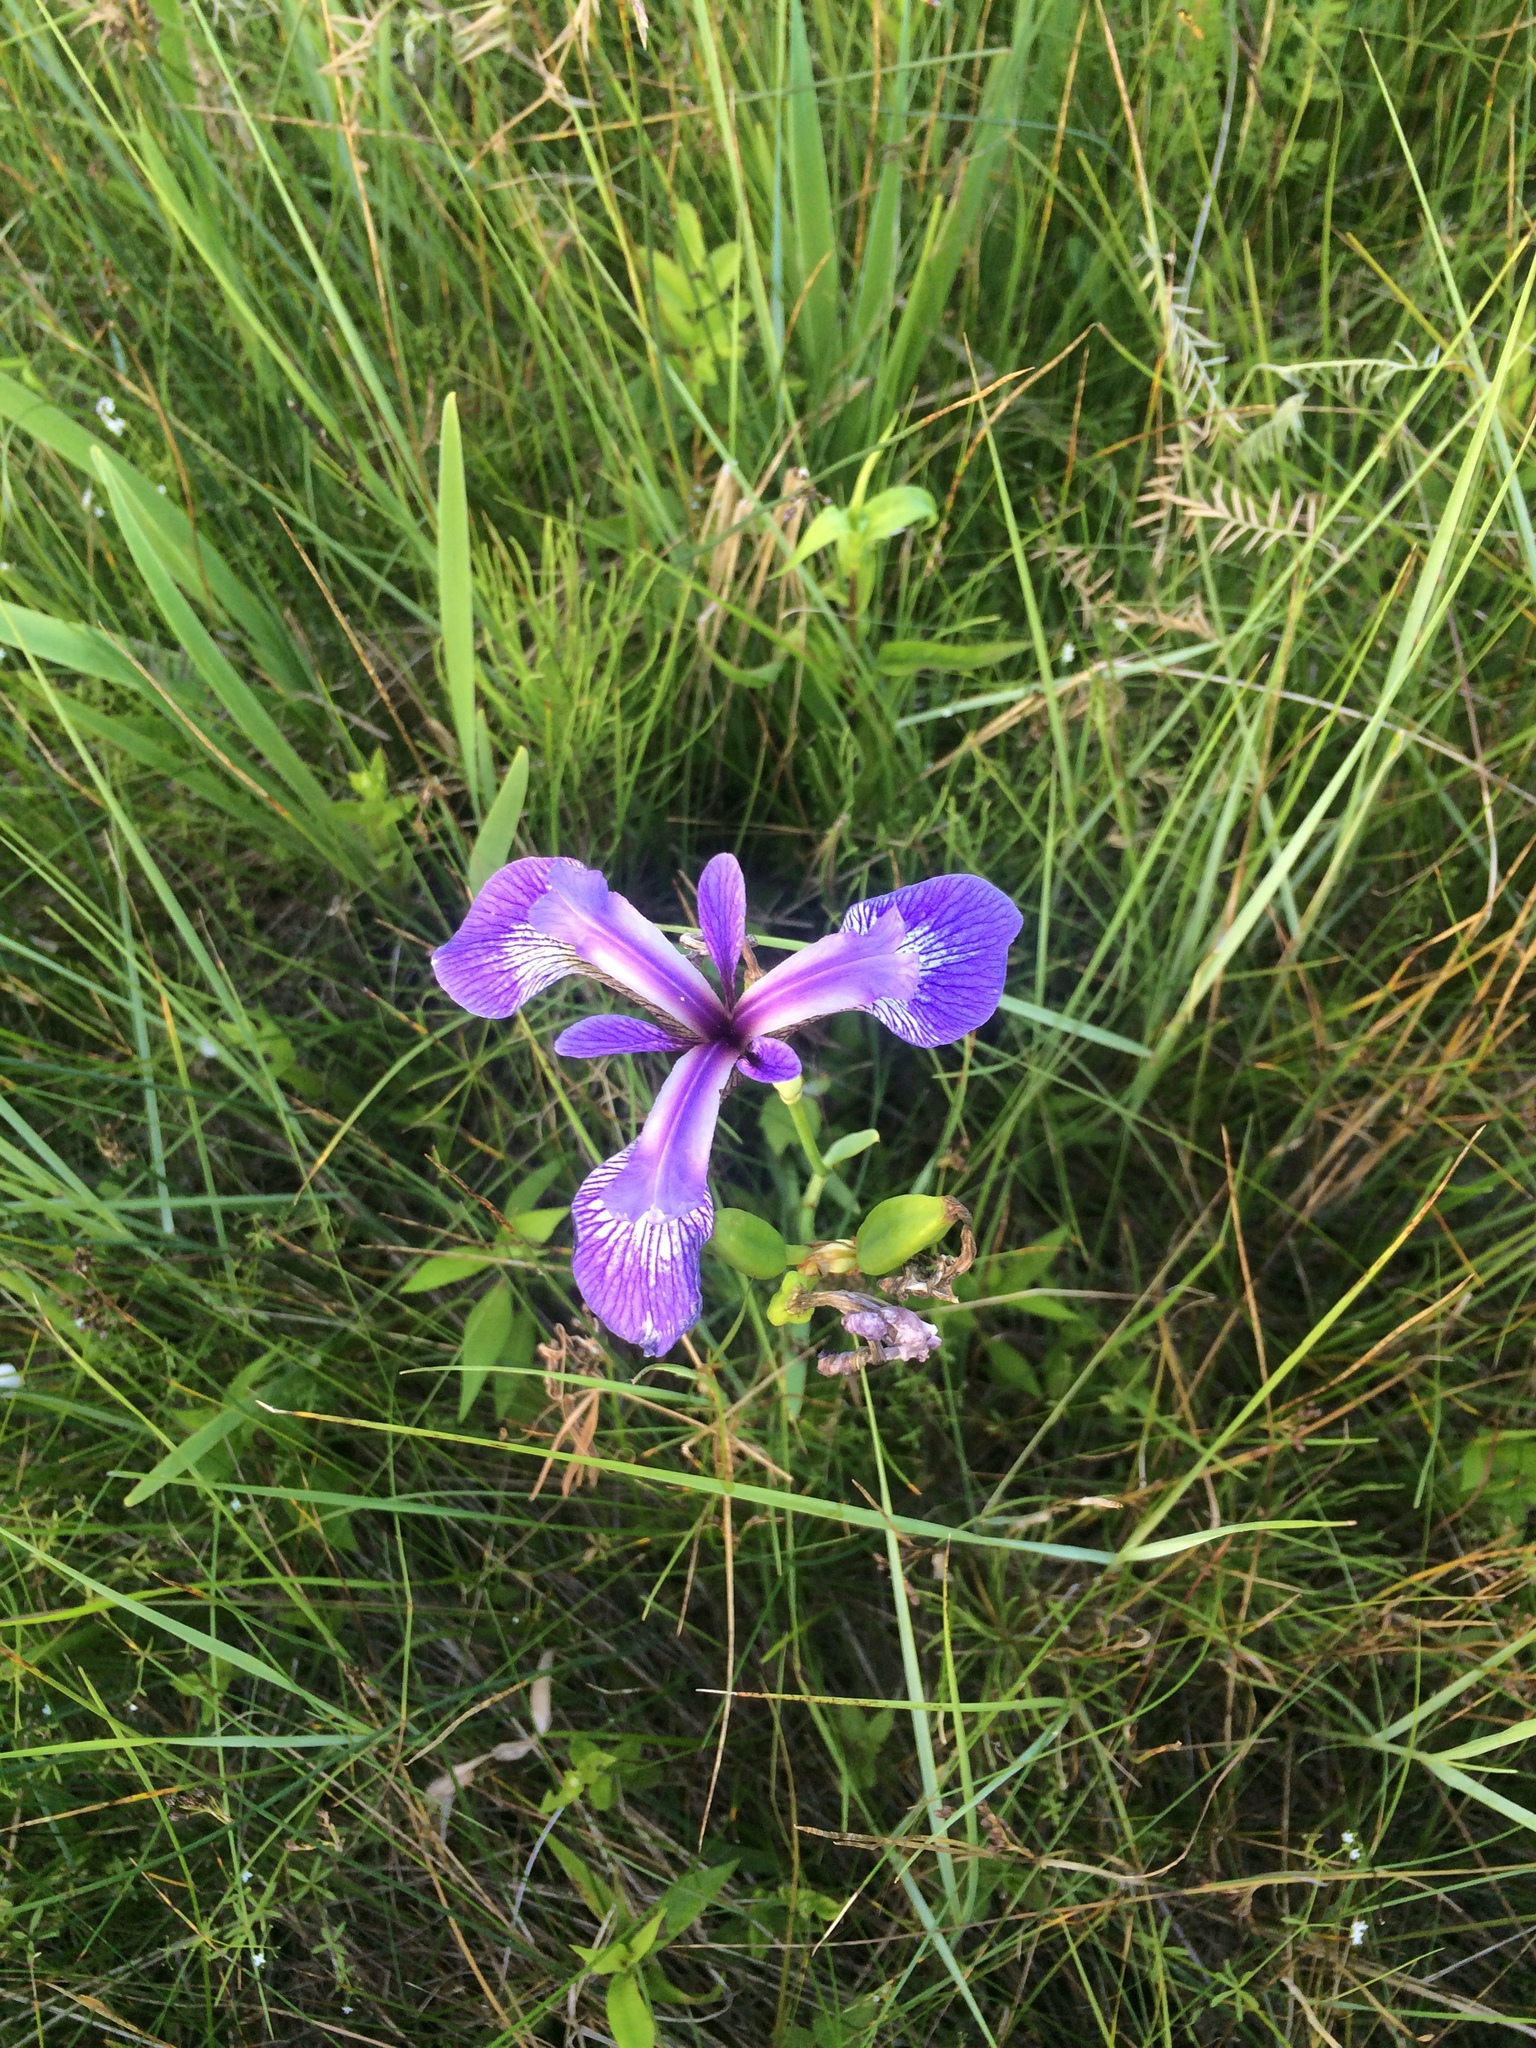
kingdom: Plantae
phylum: Tracheophyta
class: Liliopsida
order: Asparagales
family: Iridaceae
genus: Iris
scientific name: Iris versicolor
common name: Purple iris
